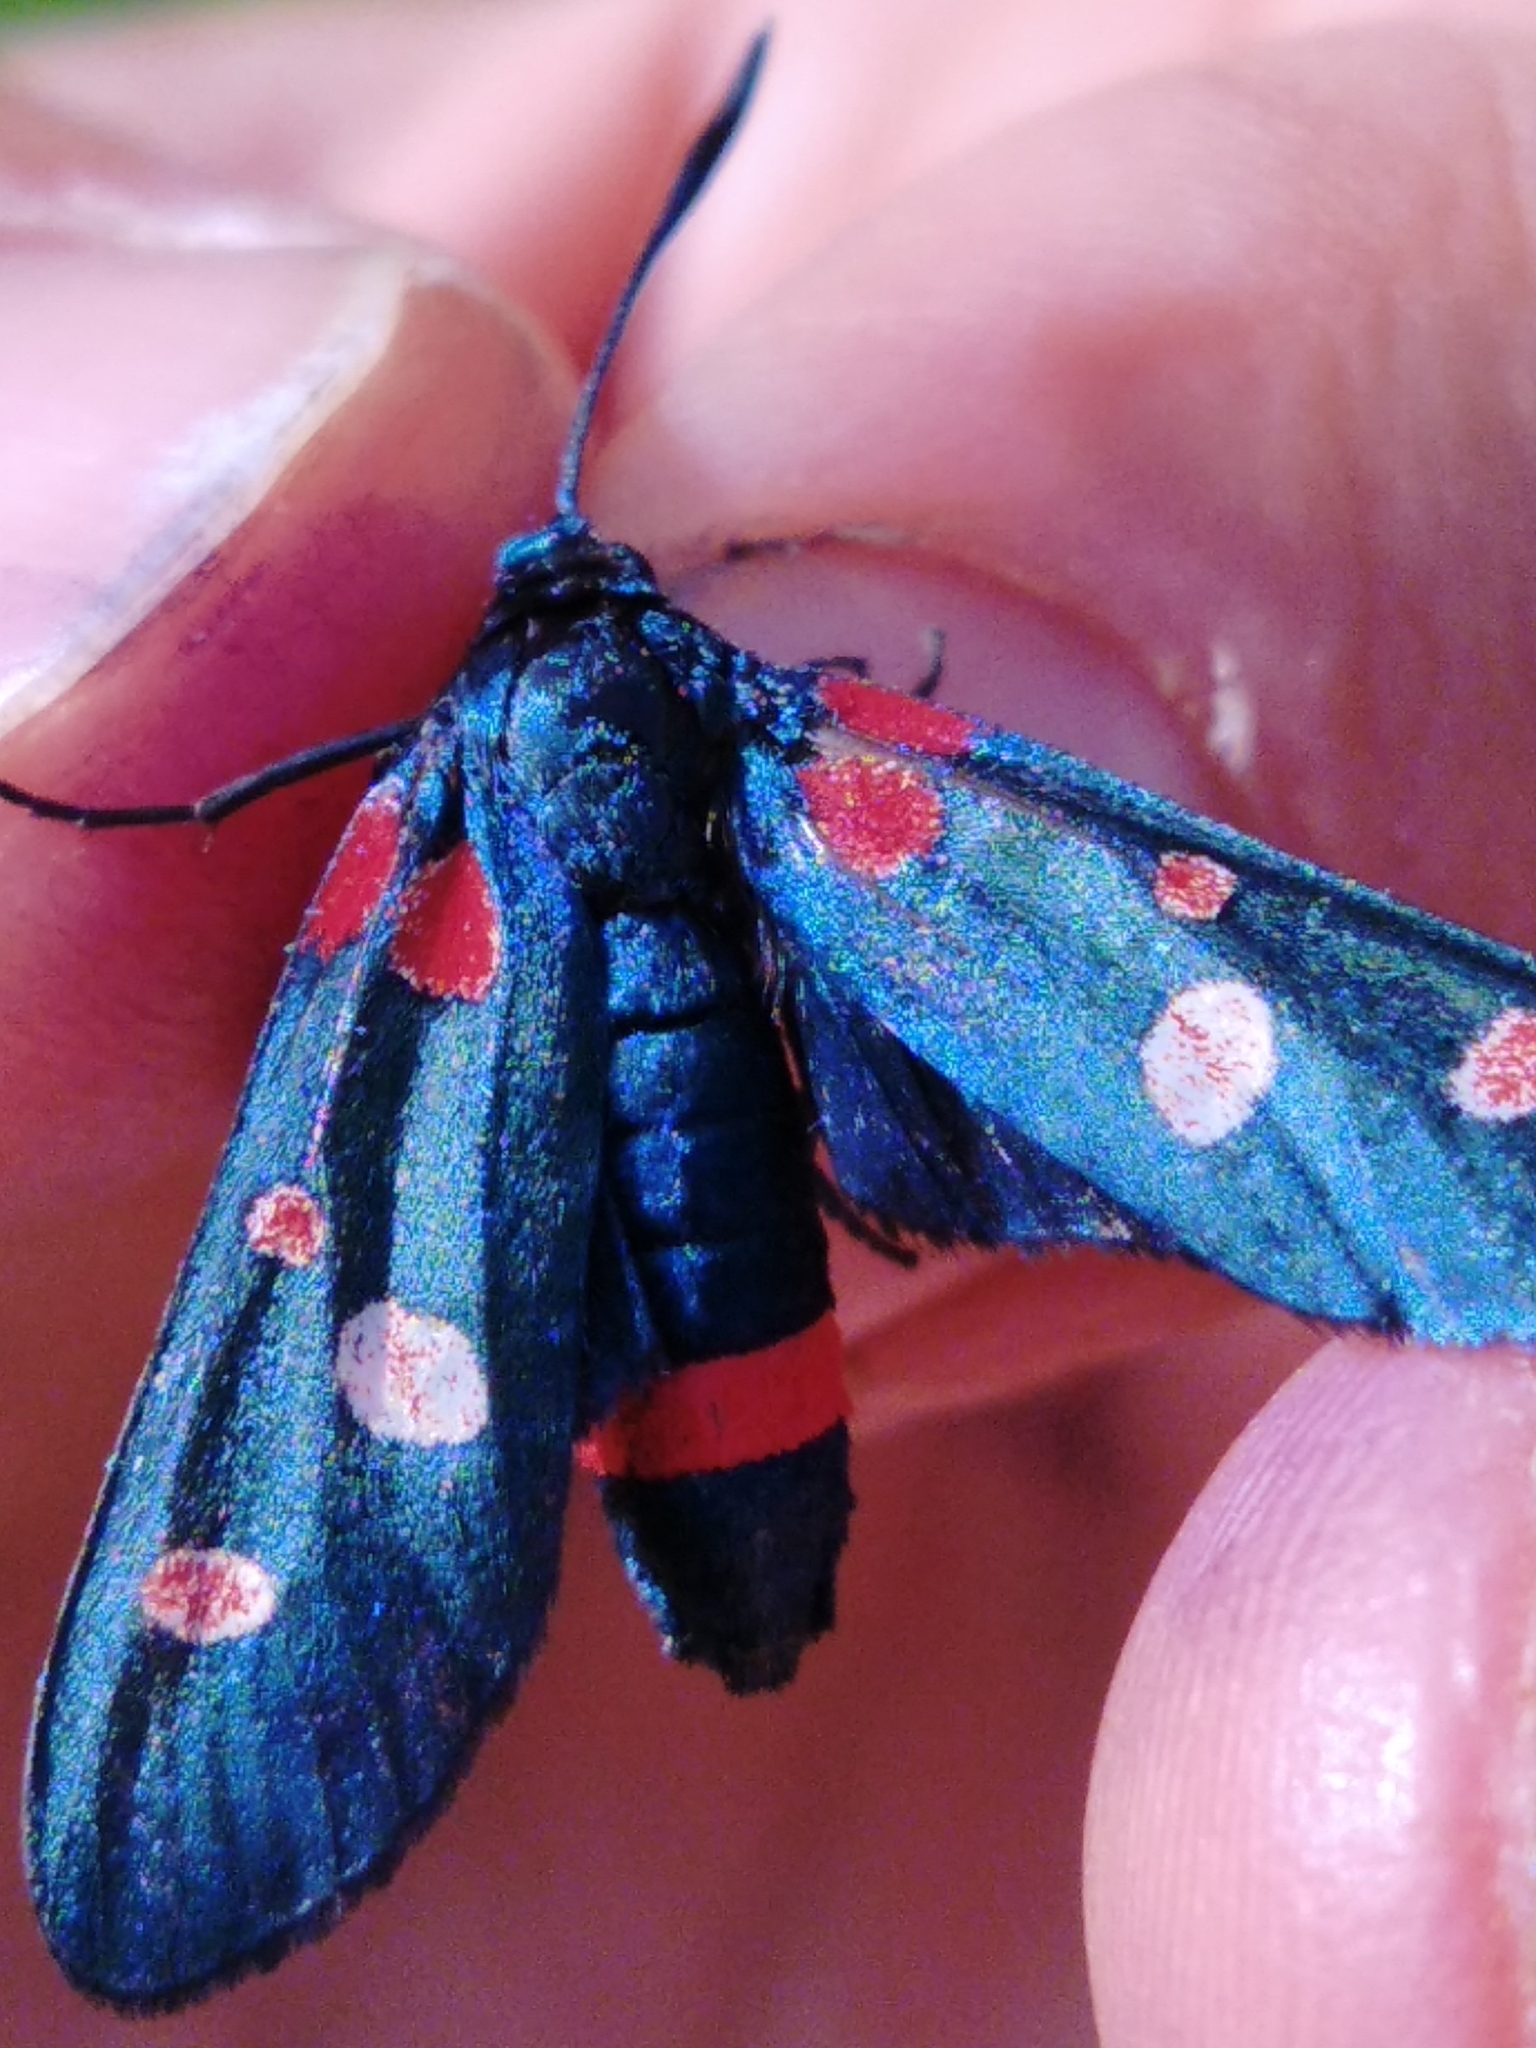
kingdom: Animalia
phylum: Arthropoda
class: Insecta
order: Lepidoptera
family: Zygaenidae
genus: Zygaena
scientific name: Zygaena ephialtes
